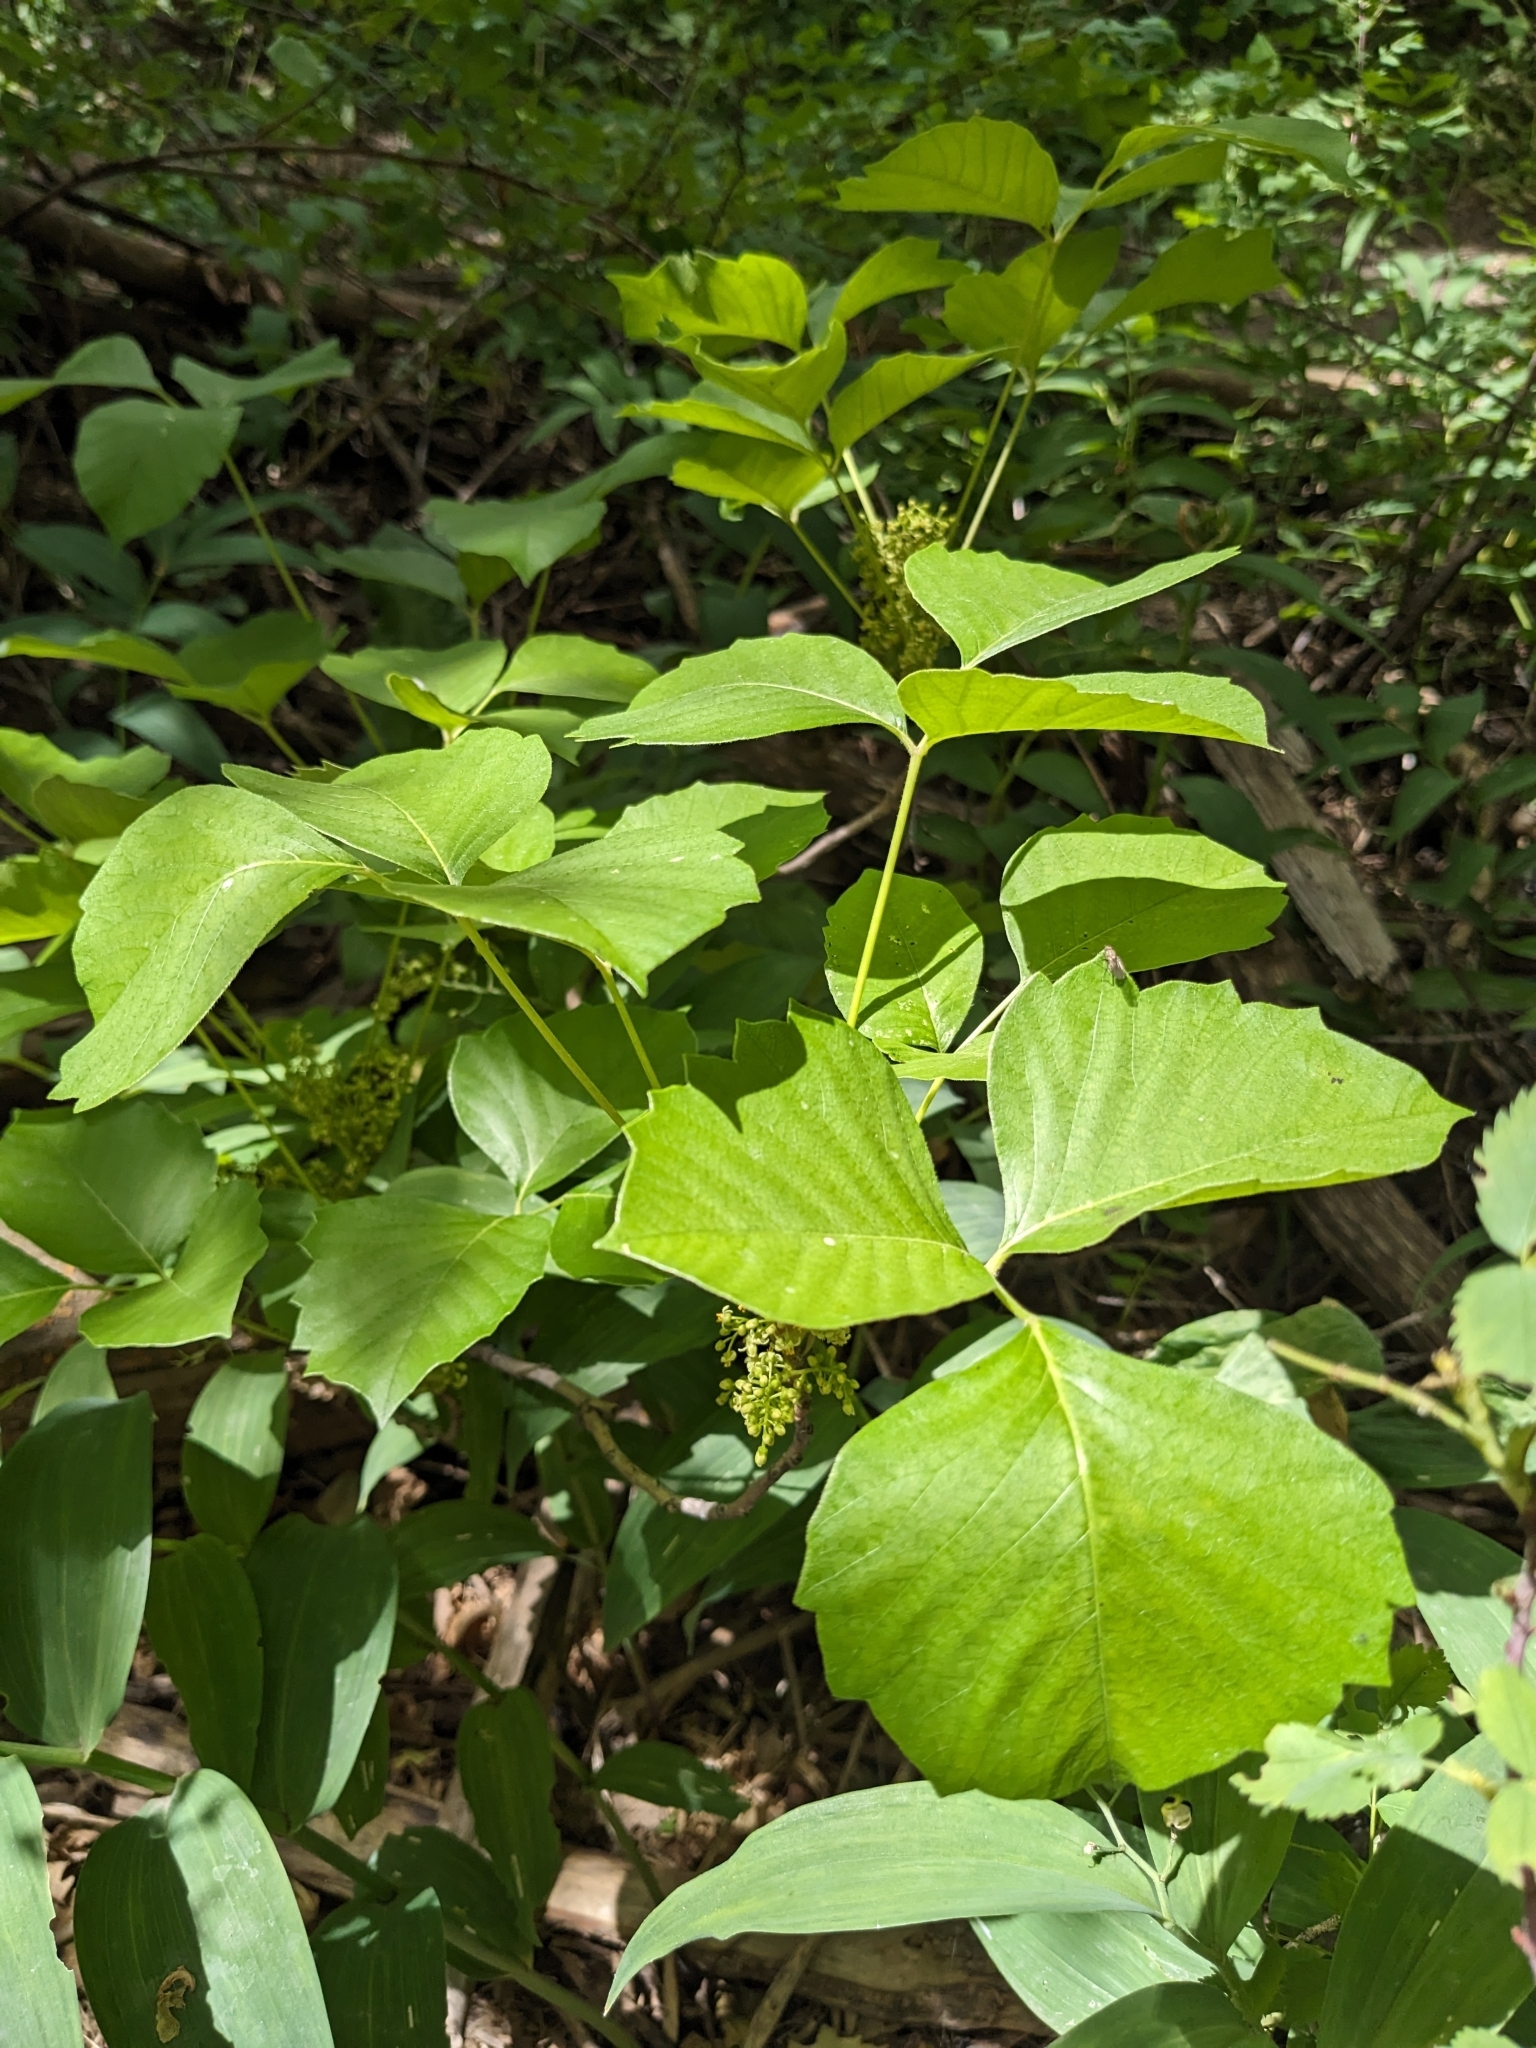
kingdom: Plantae
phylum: Tracheophyta
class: Magnoliopsida
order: Sapindales
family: Anacardiaceae
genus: Toxicodendron
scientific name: Toxicodendron rydbergii
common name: Rydberg's poison-ivy
